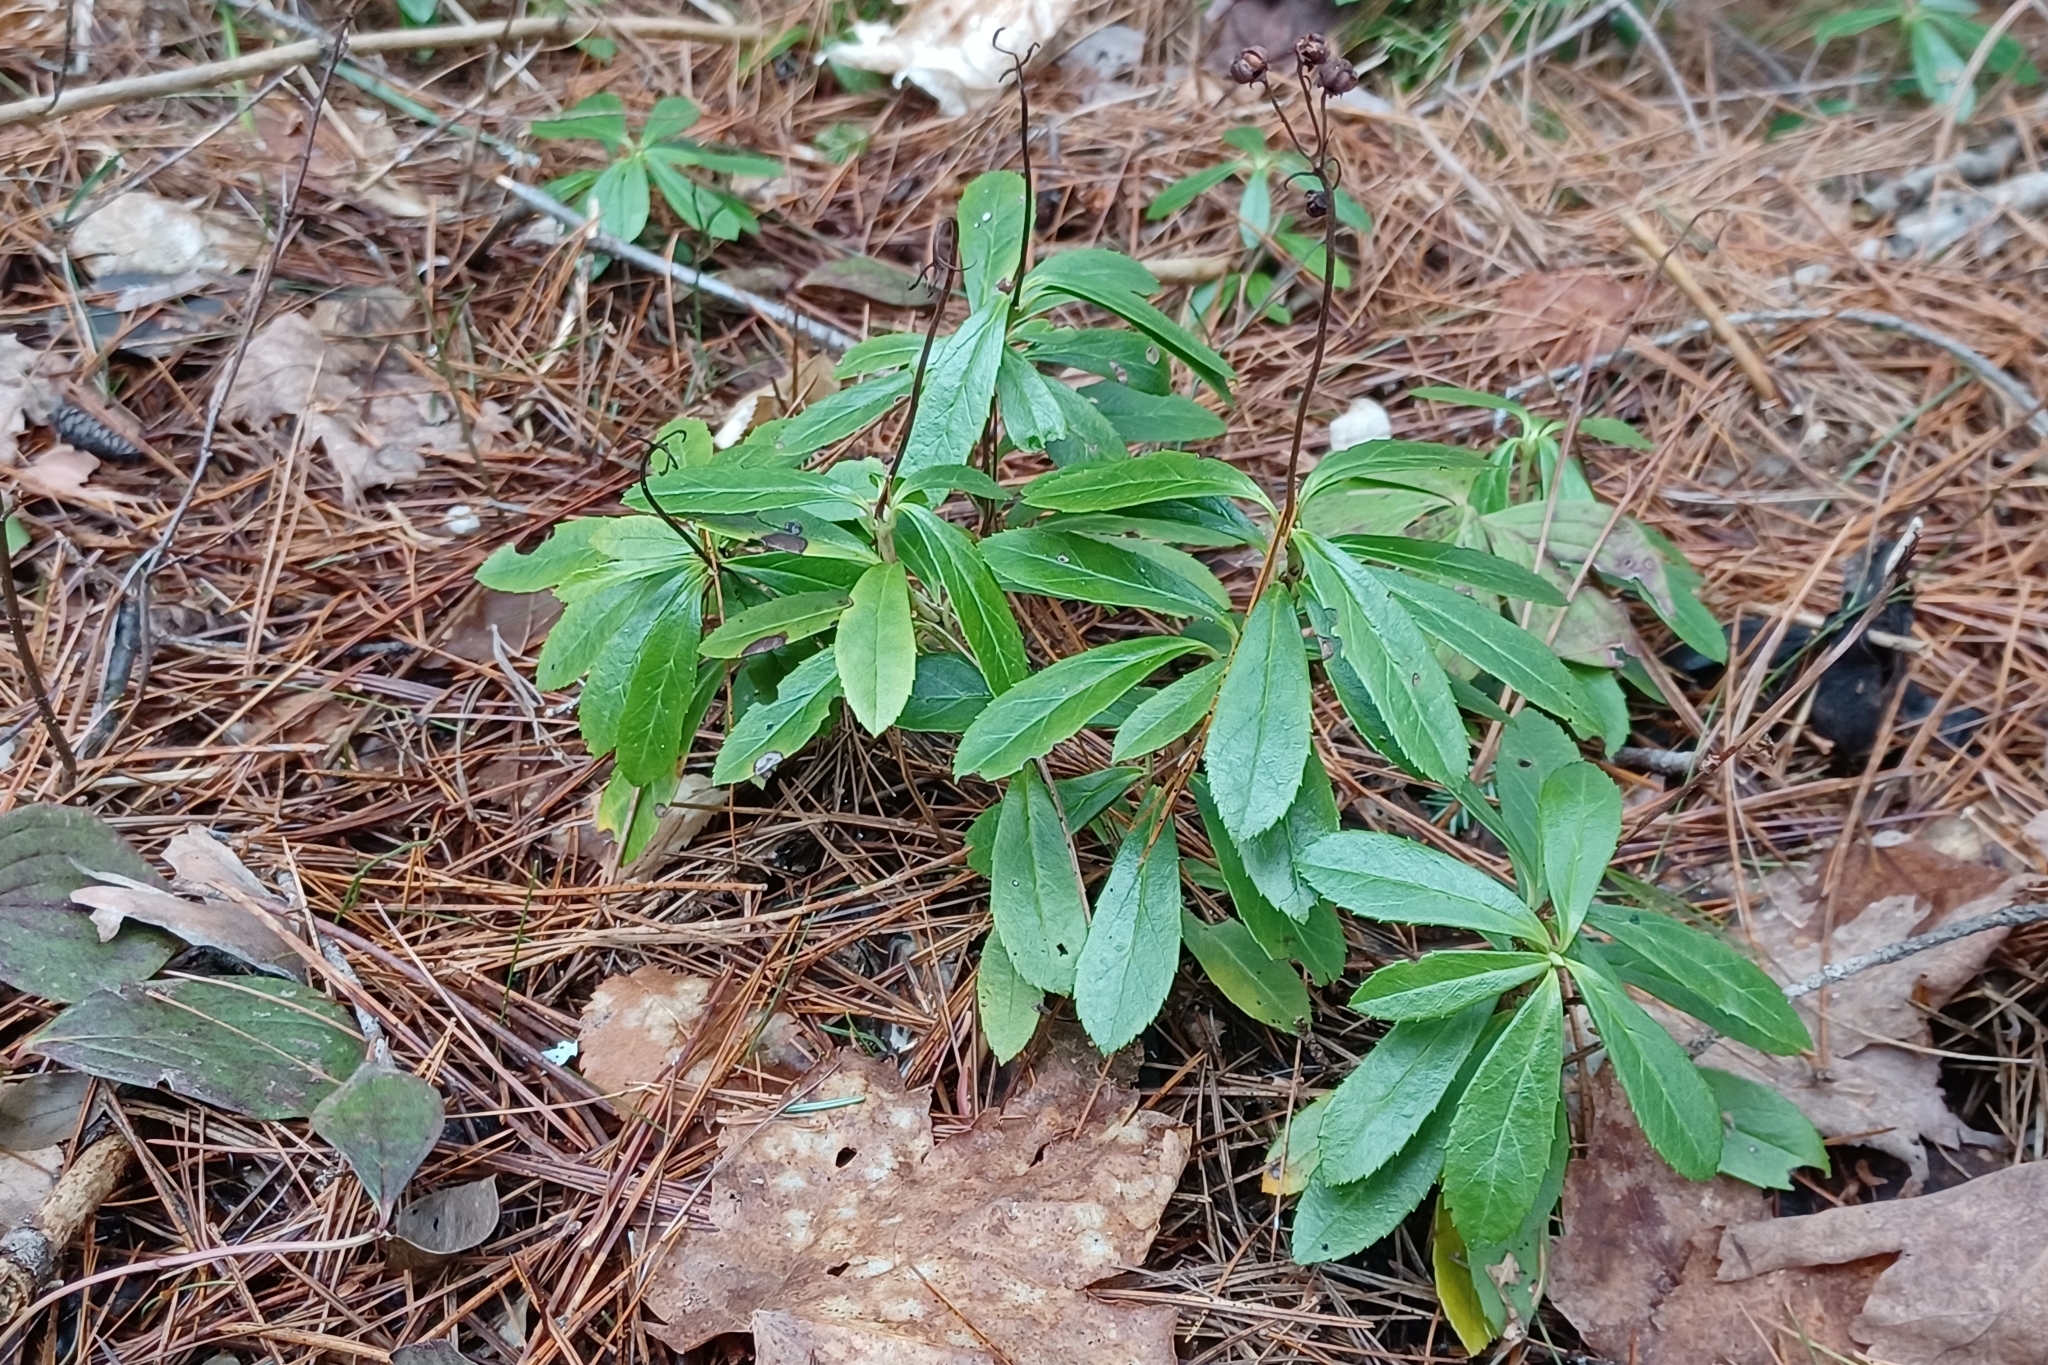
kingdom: Plantae
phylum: Tracheophyta
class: Magnoliopsida
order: Ericales
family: Ericaceae
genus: Chimaphila
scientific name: Chimaphila umbellata
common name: Pipsissewa
